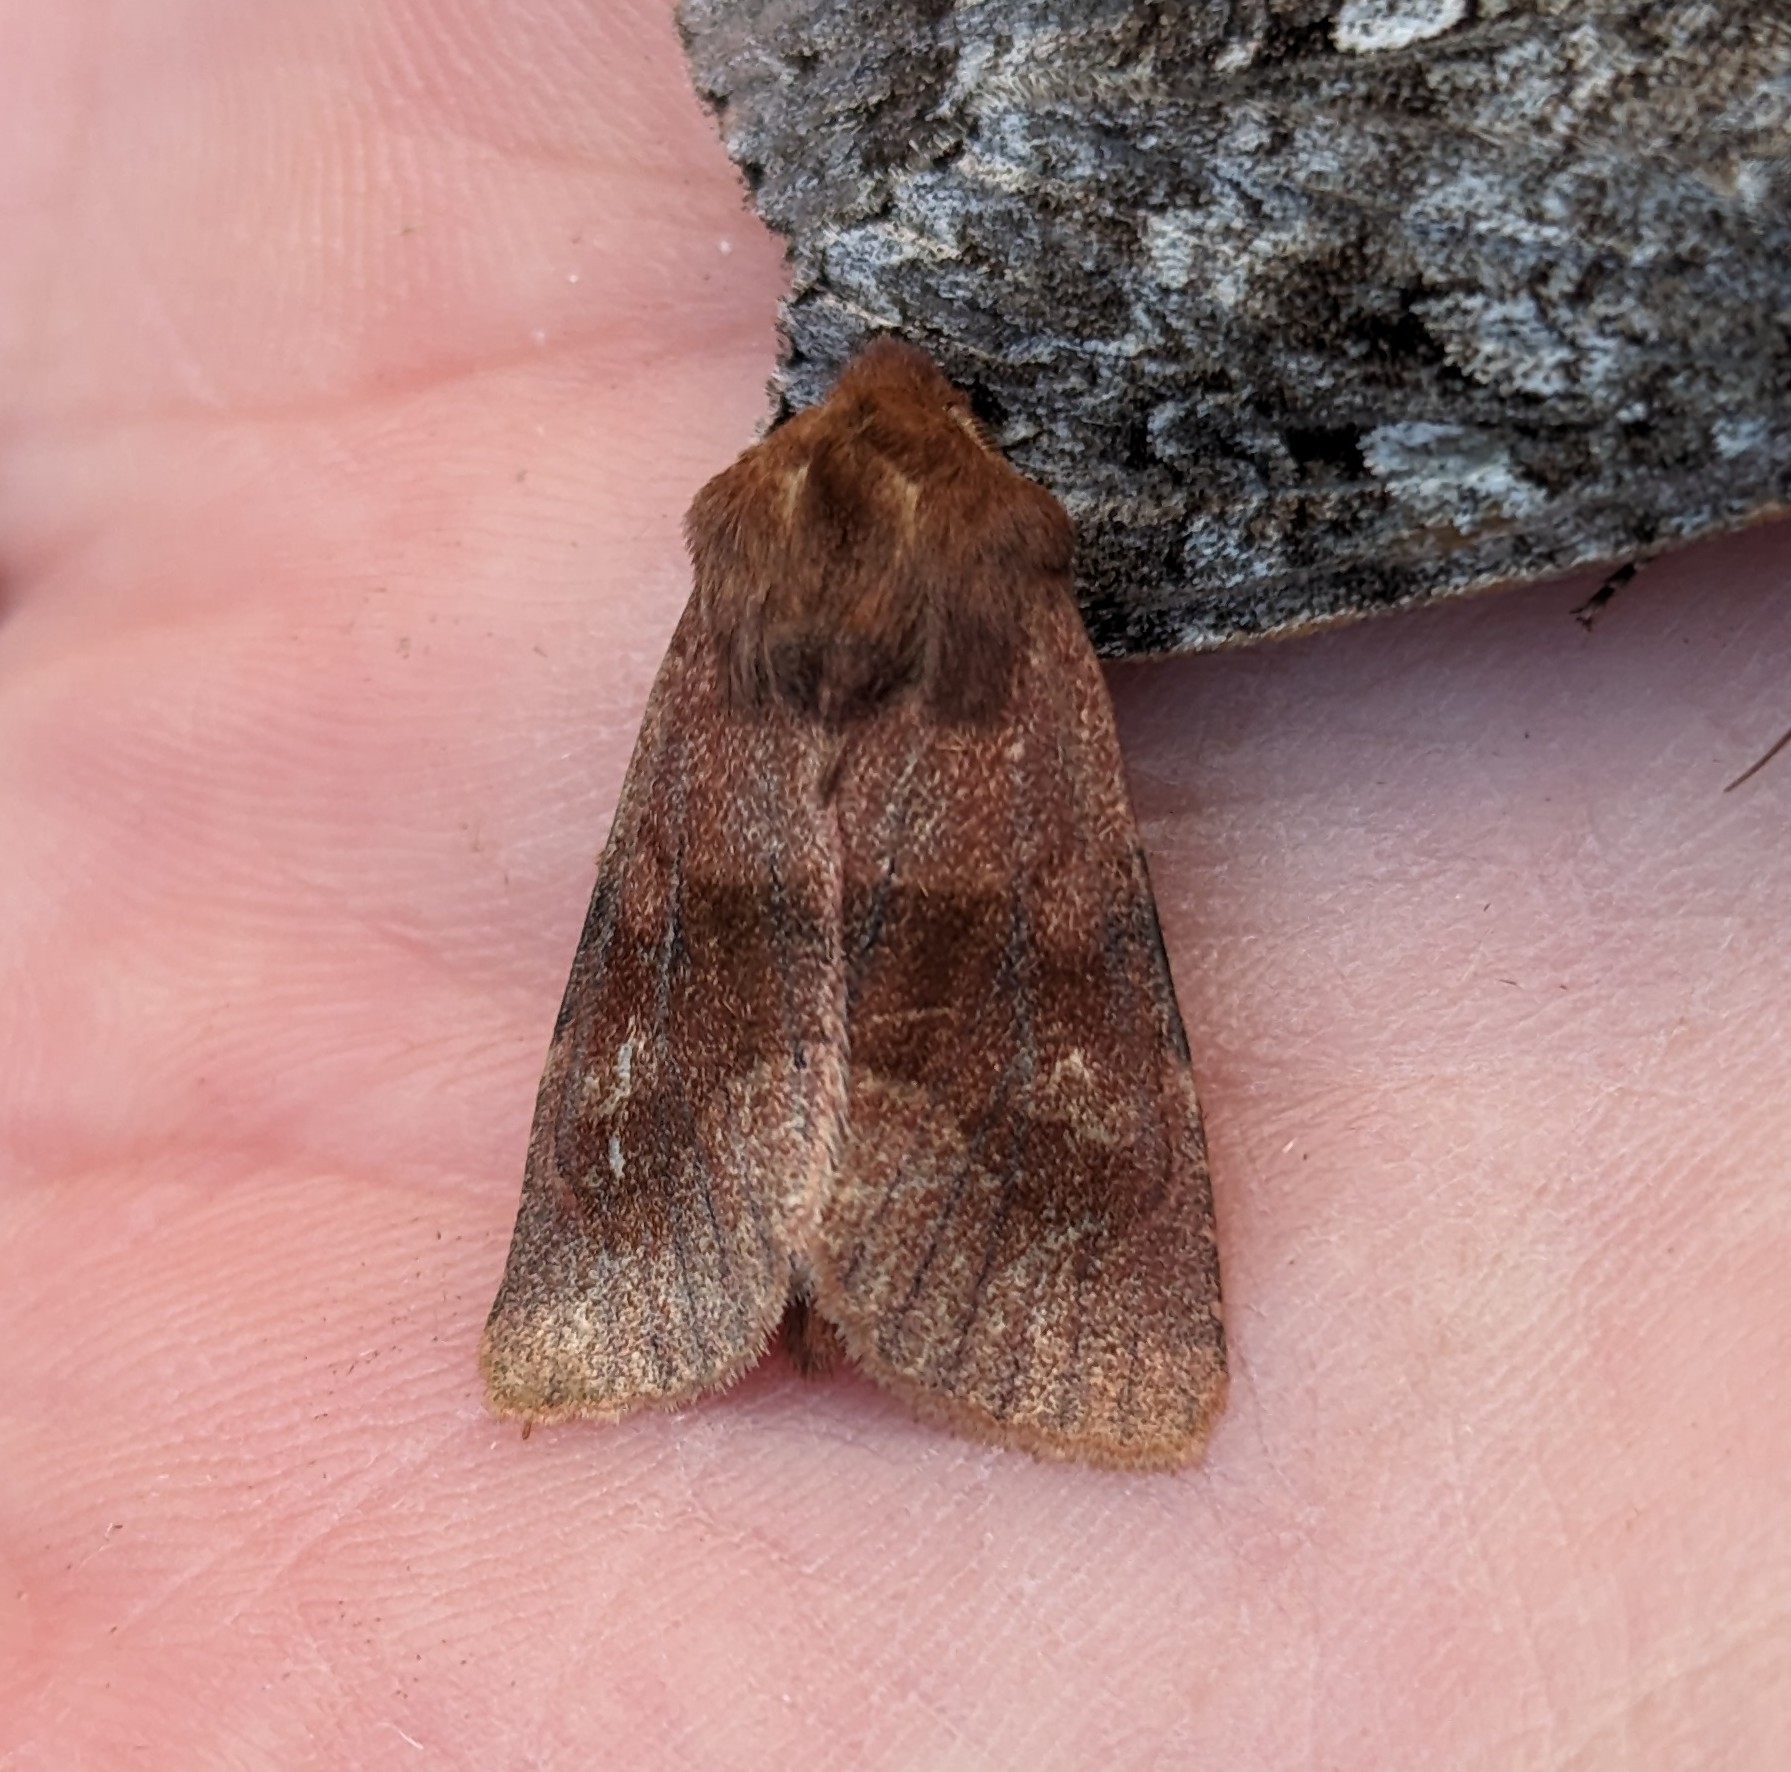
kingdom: Animalia
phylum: Arthropoda
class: Insecta
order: Lepidoptera
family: Noctuidae
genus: Nephelodes
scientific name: Nephelodes minians
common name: Bronzed cutworm
